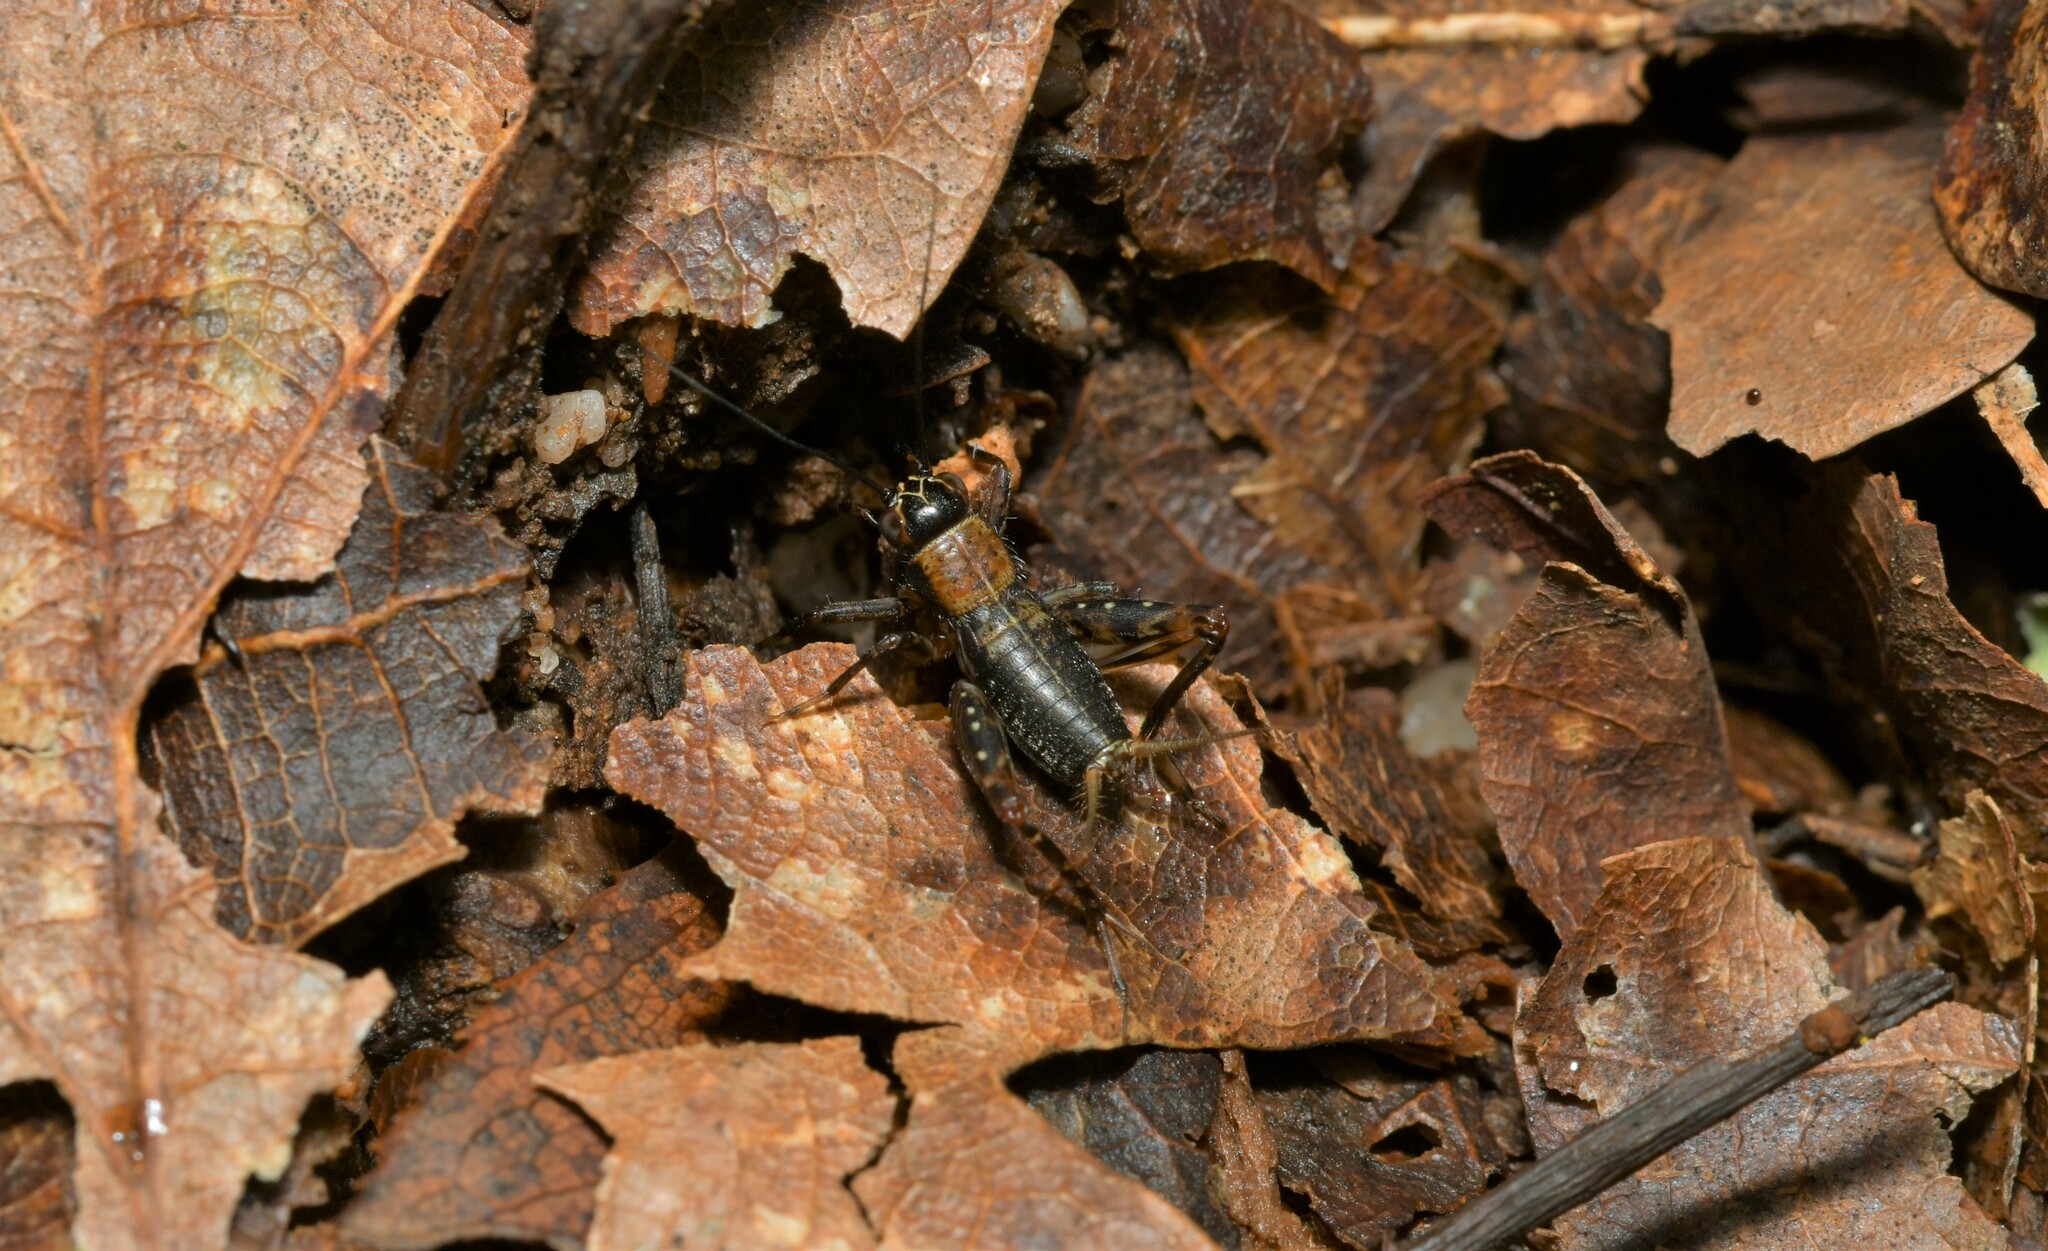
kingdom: Animalia
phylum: Arthropoda
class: Insecta
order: Orthoptera
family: Trigonidiidae
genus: Nemobius
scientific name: Nemobius sylvestris
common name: Wood-cricket
